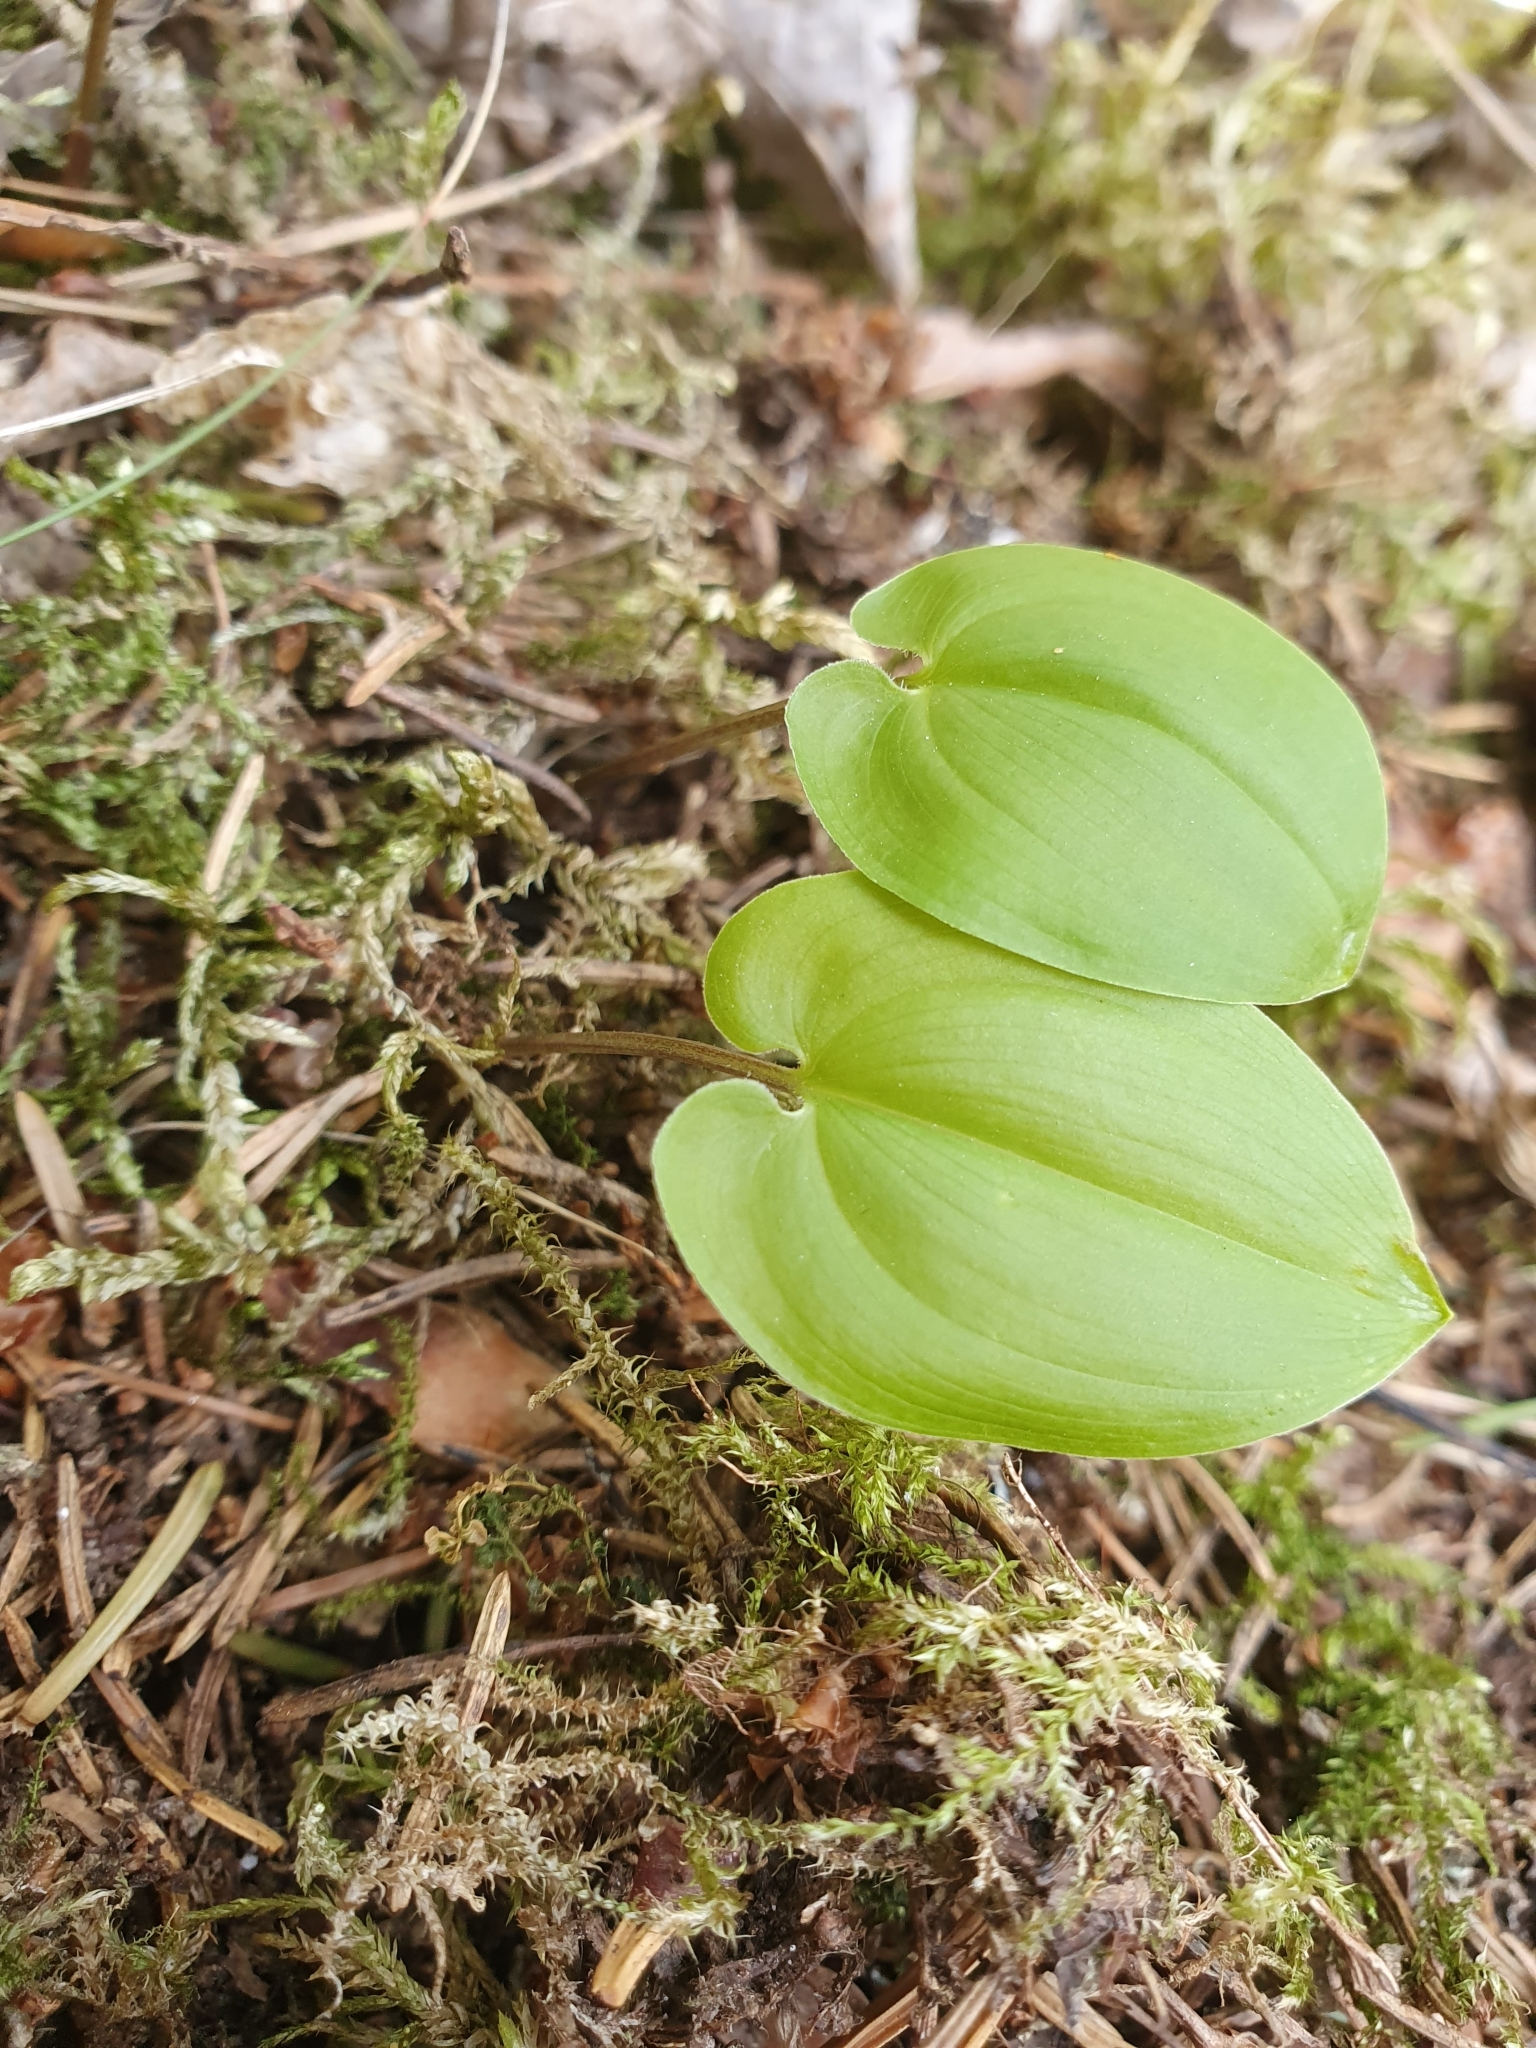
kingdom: Plantae
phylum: Tracheophyta
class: Liliopsida
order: Asparagales
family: Asparagaceae
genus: Maianthemum
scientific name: Maianthemum bifolium
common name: May lily
